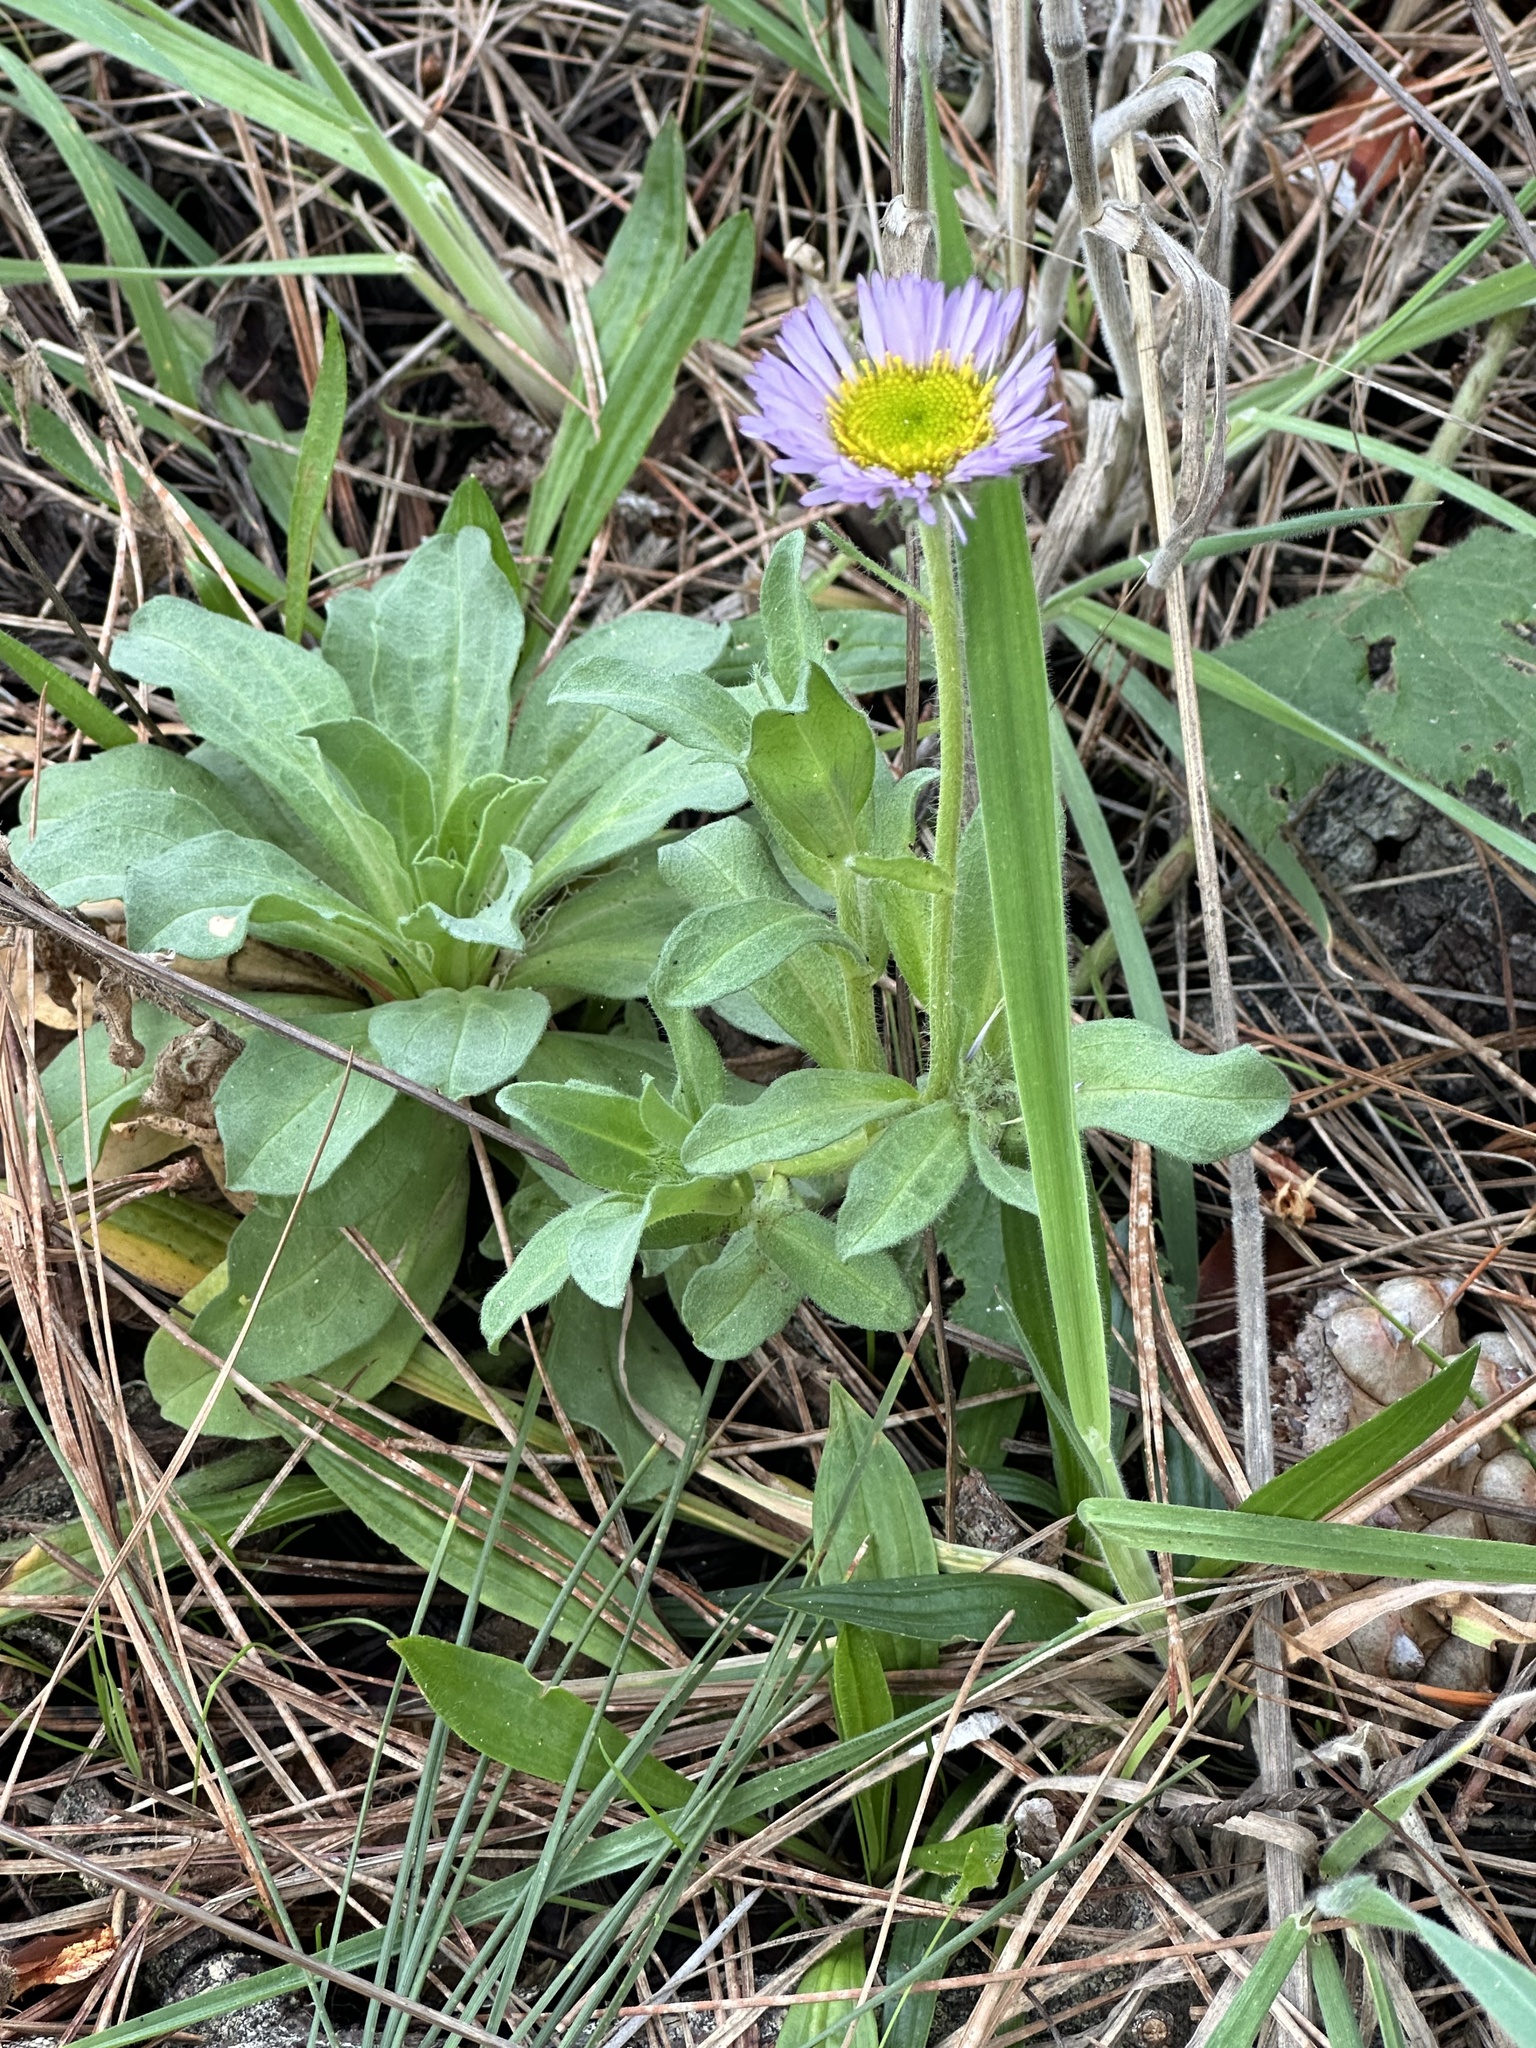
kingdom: Plantae
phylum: Tracheophyta
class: Magnoliopsida
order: Asterales
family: Asteraceae
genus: Erigeron
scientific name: Erigeron glaucus
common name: Seaside daisy
